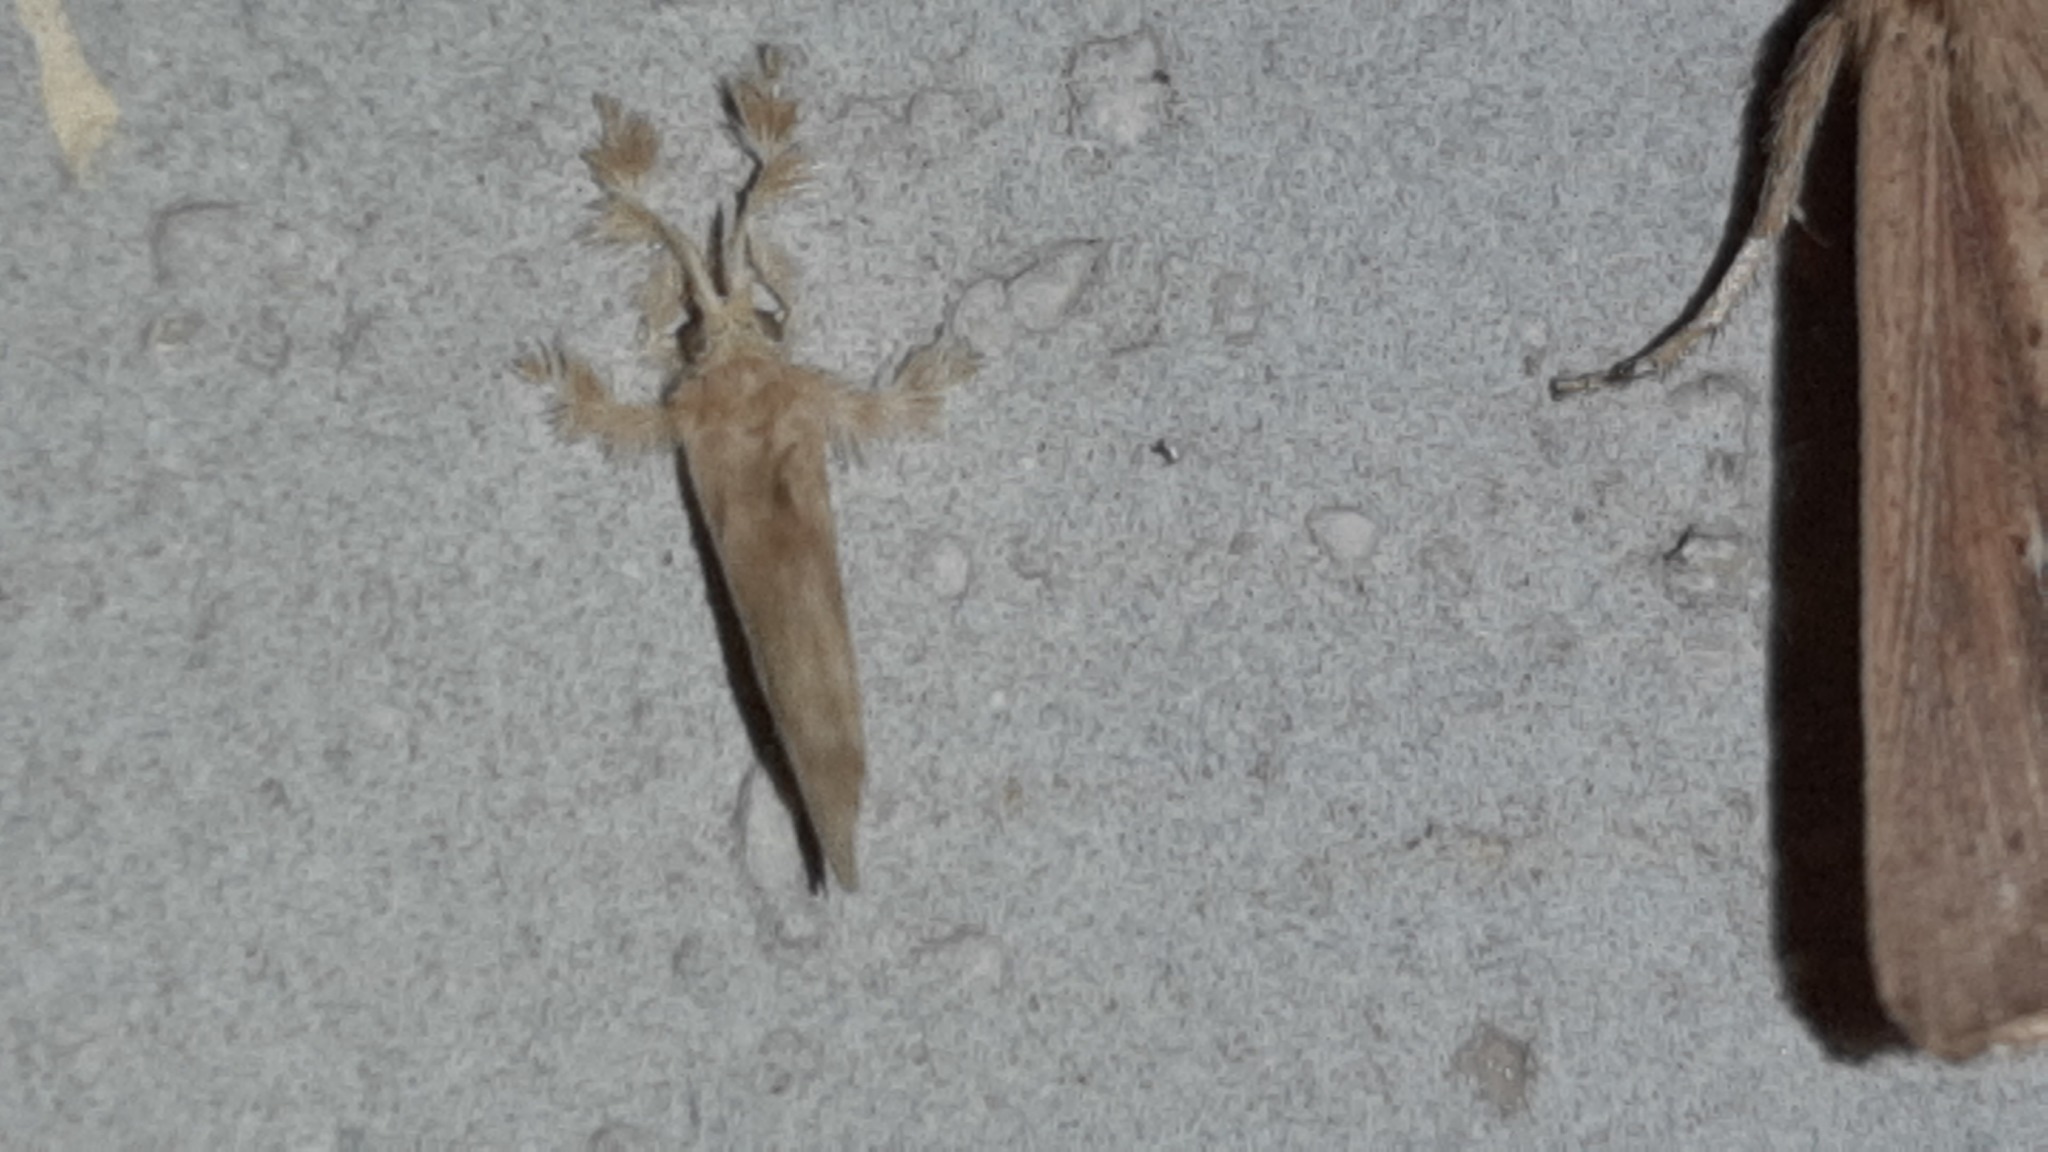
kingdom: Animalia
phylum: Arthropoda
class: Insecta
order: Lepidoptera
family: Dalceridae
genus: Dalcerides
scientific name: Dalcerides sofia
